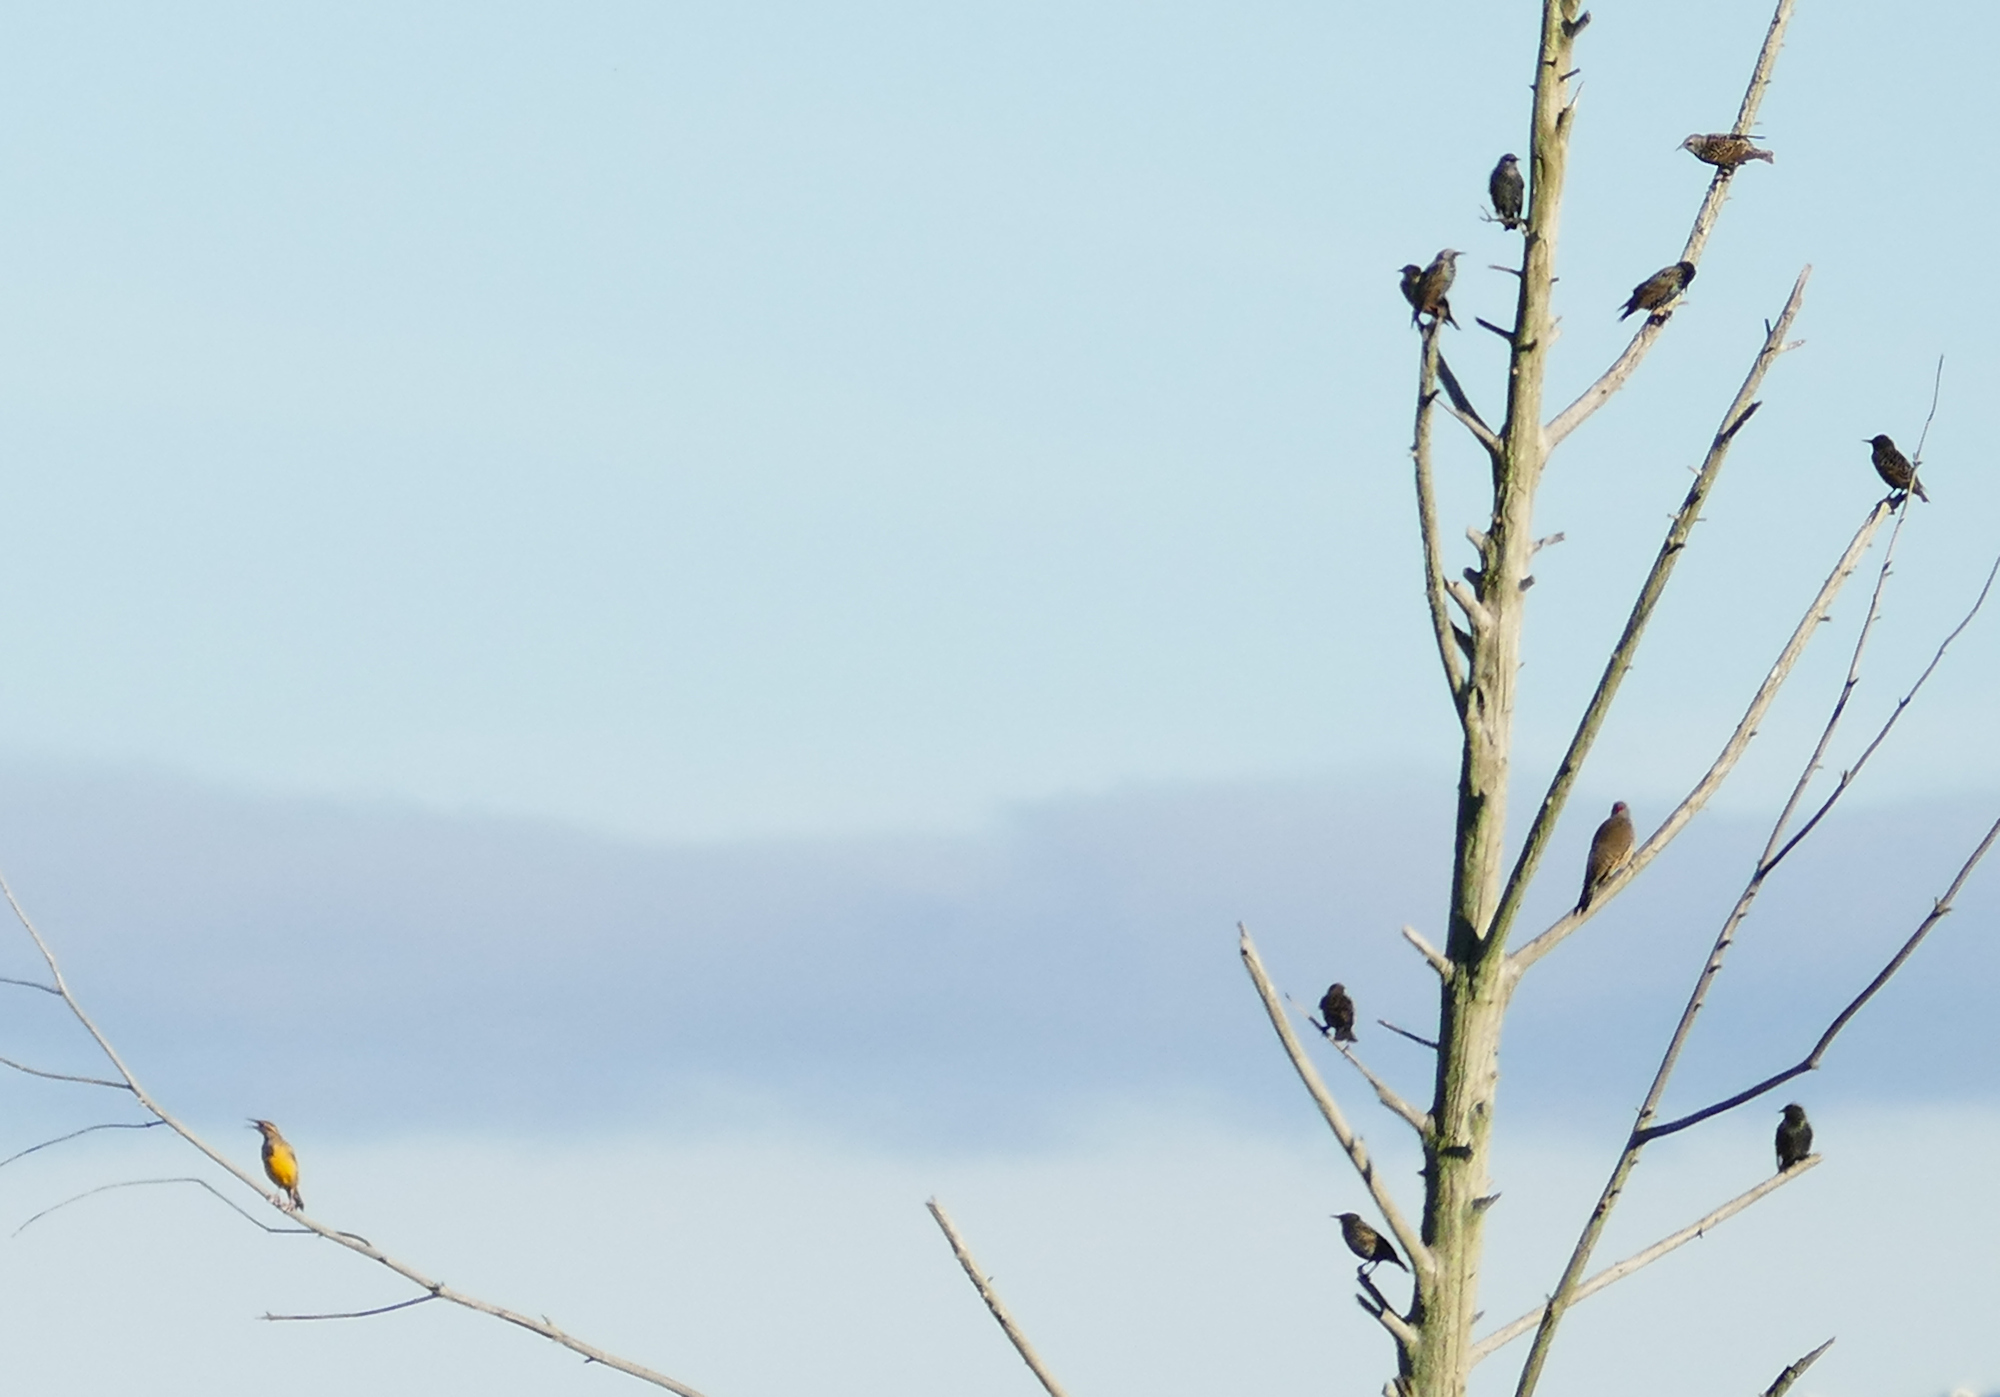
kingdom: Animalia
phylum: Chordata
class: Aves
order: Passeriformes
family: Icteridae
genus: Sturnella
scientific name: Sturnella magna
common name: Eastern meadowlark
